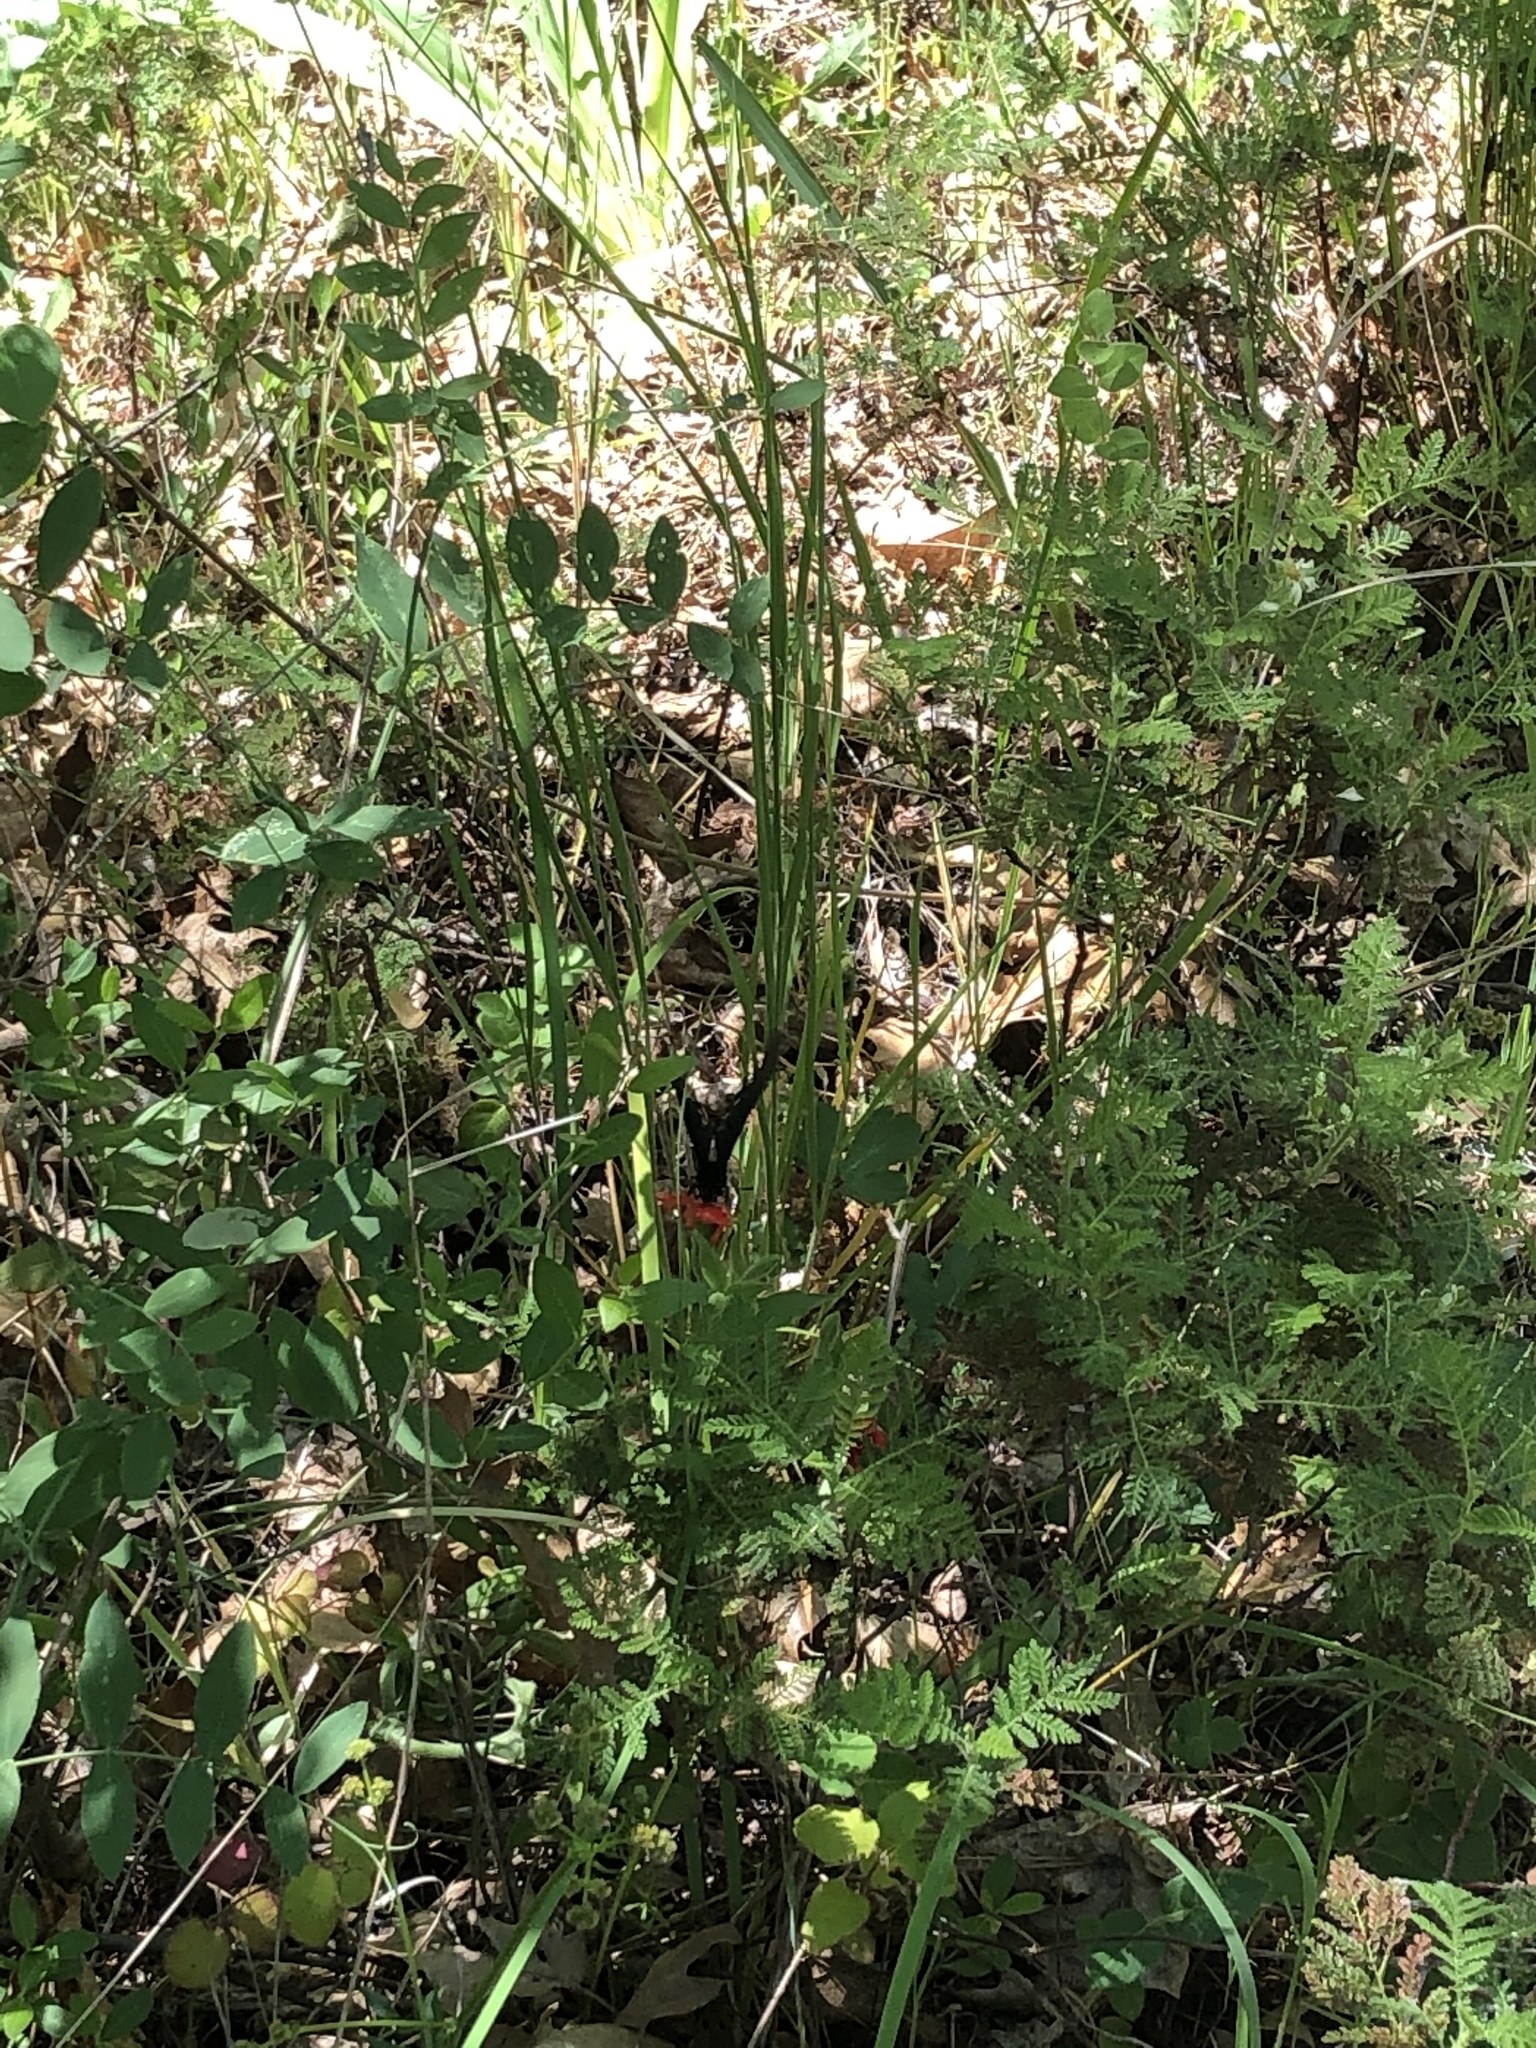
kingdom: Animalia
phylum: Arthropoda
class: Insecta
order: Lepidoptera
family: Papilionidae
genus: Battus
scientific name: Battus philenor
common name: Pipevine swallowtail
